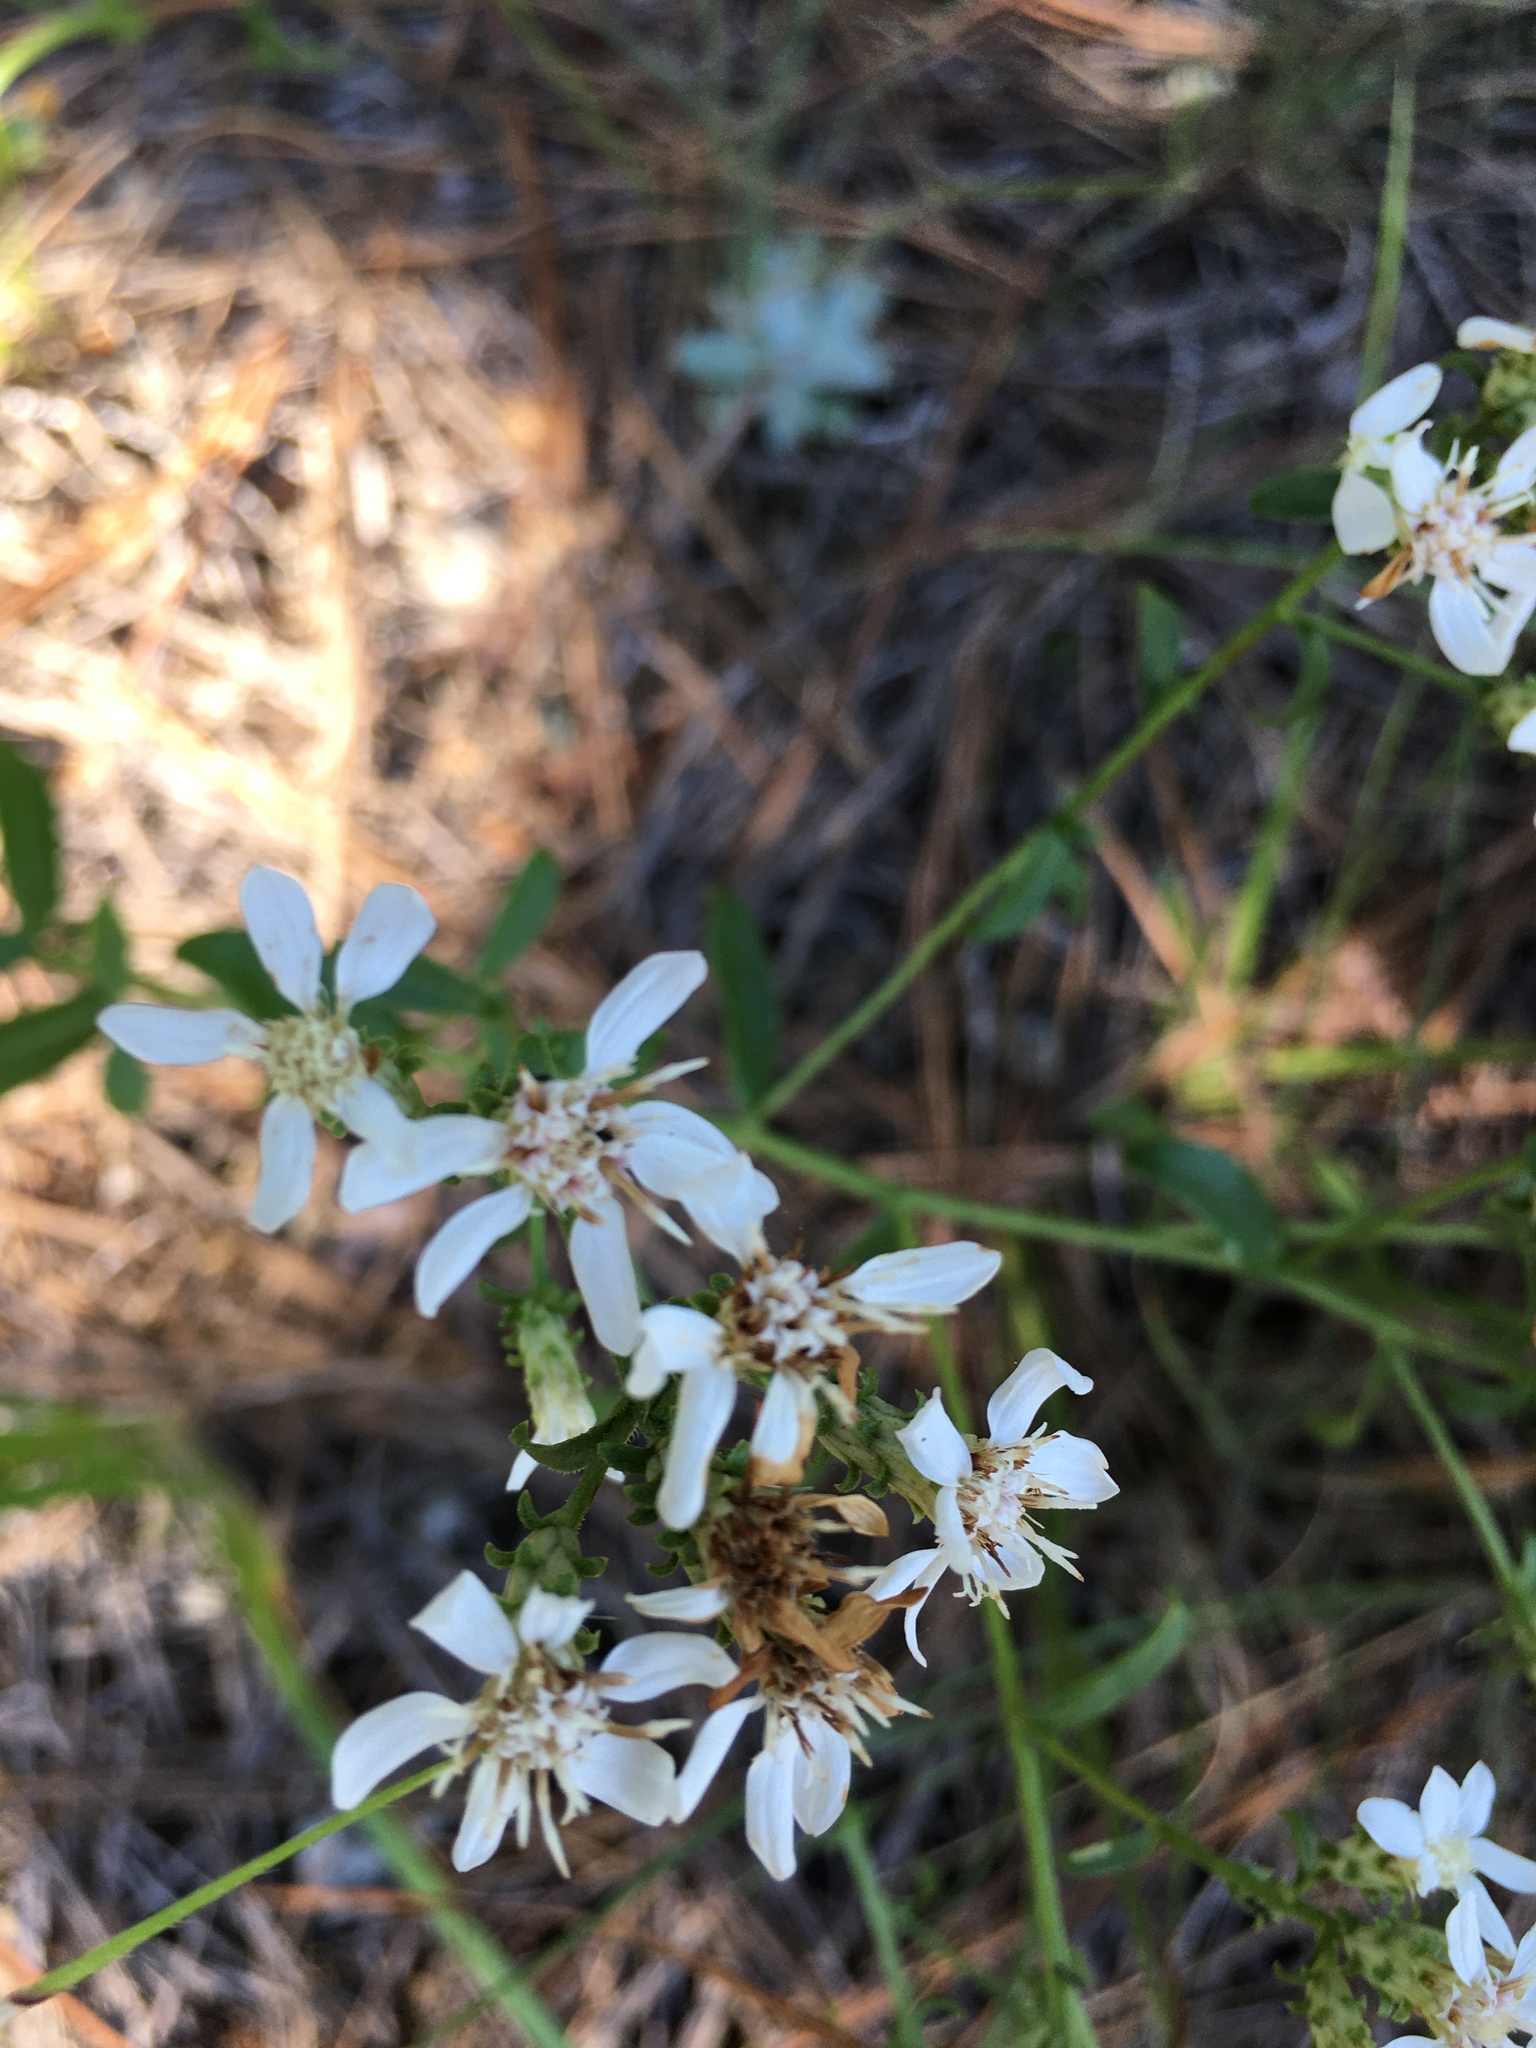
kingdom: Plantae
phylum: Tracheophyta
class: Magnoliopsida
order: Asterales
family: Asteraceae
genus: Sericocarpus
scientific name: Sericocarpus asteroides
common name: Toothed white-top aster
